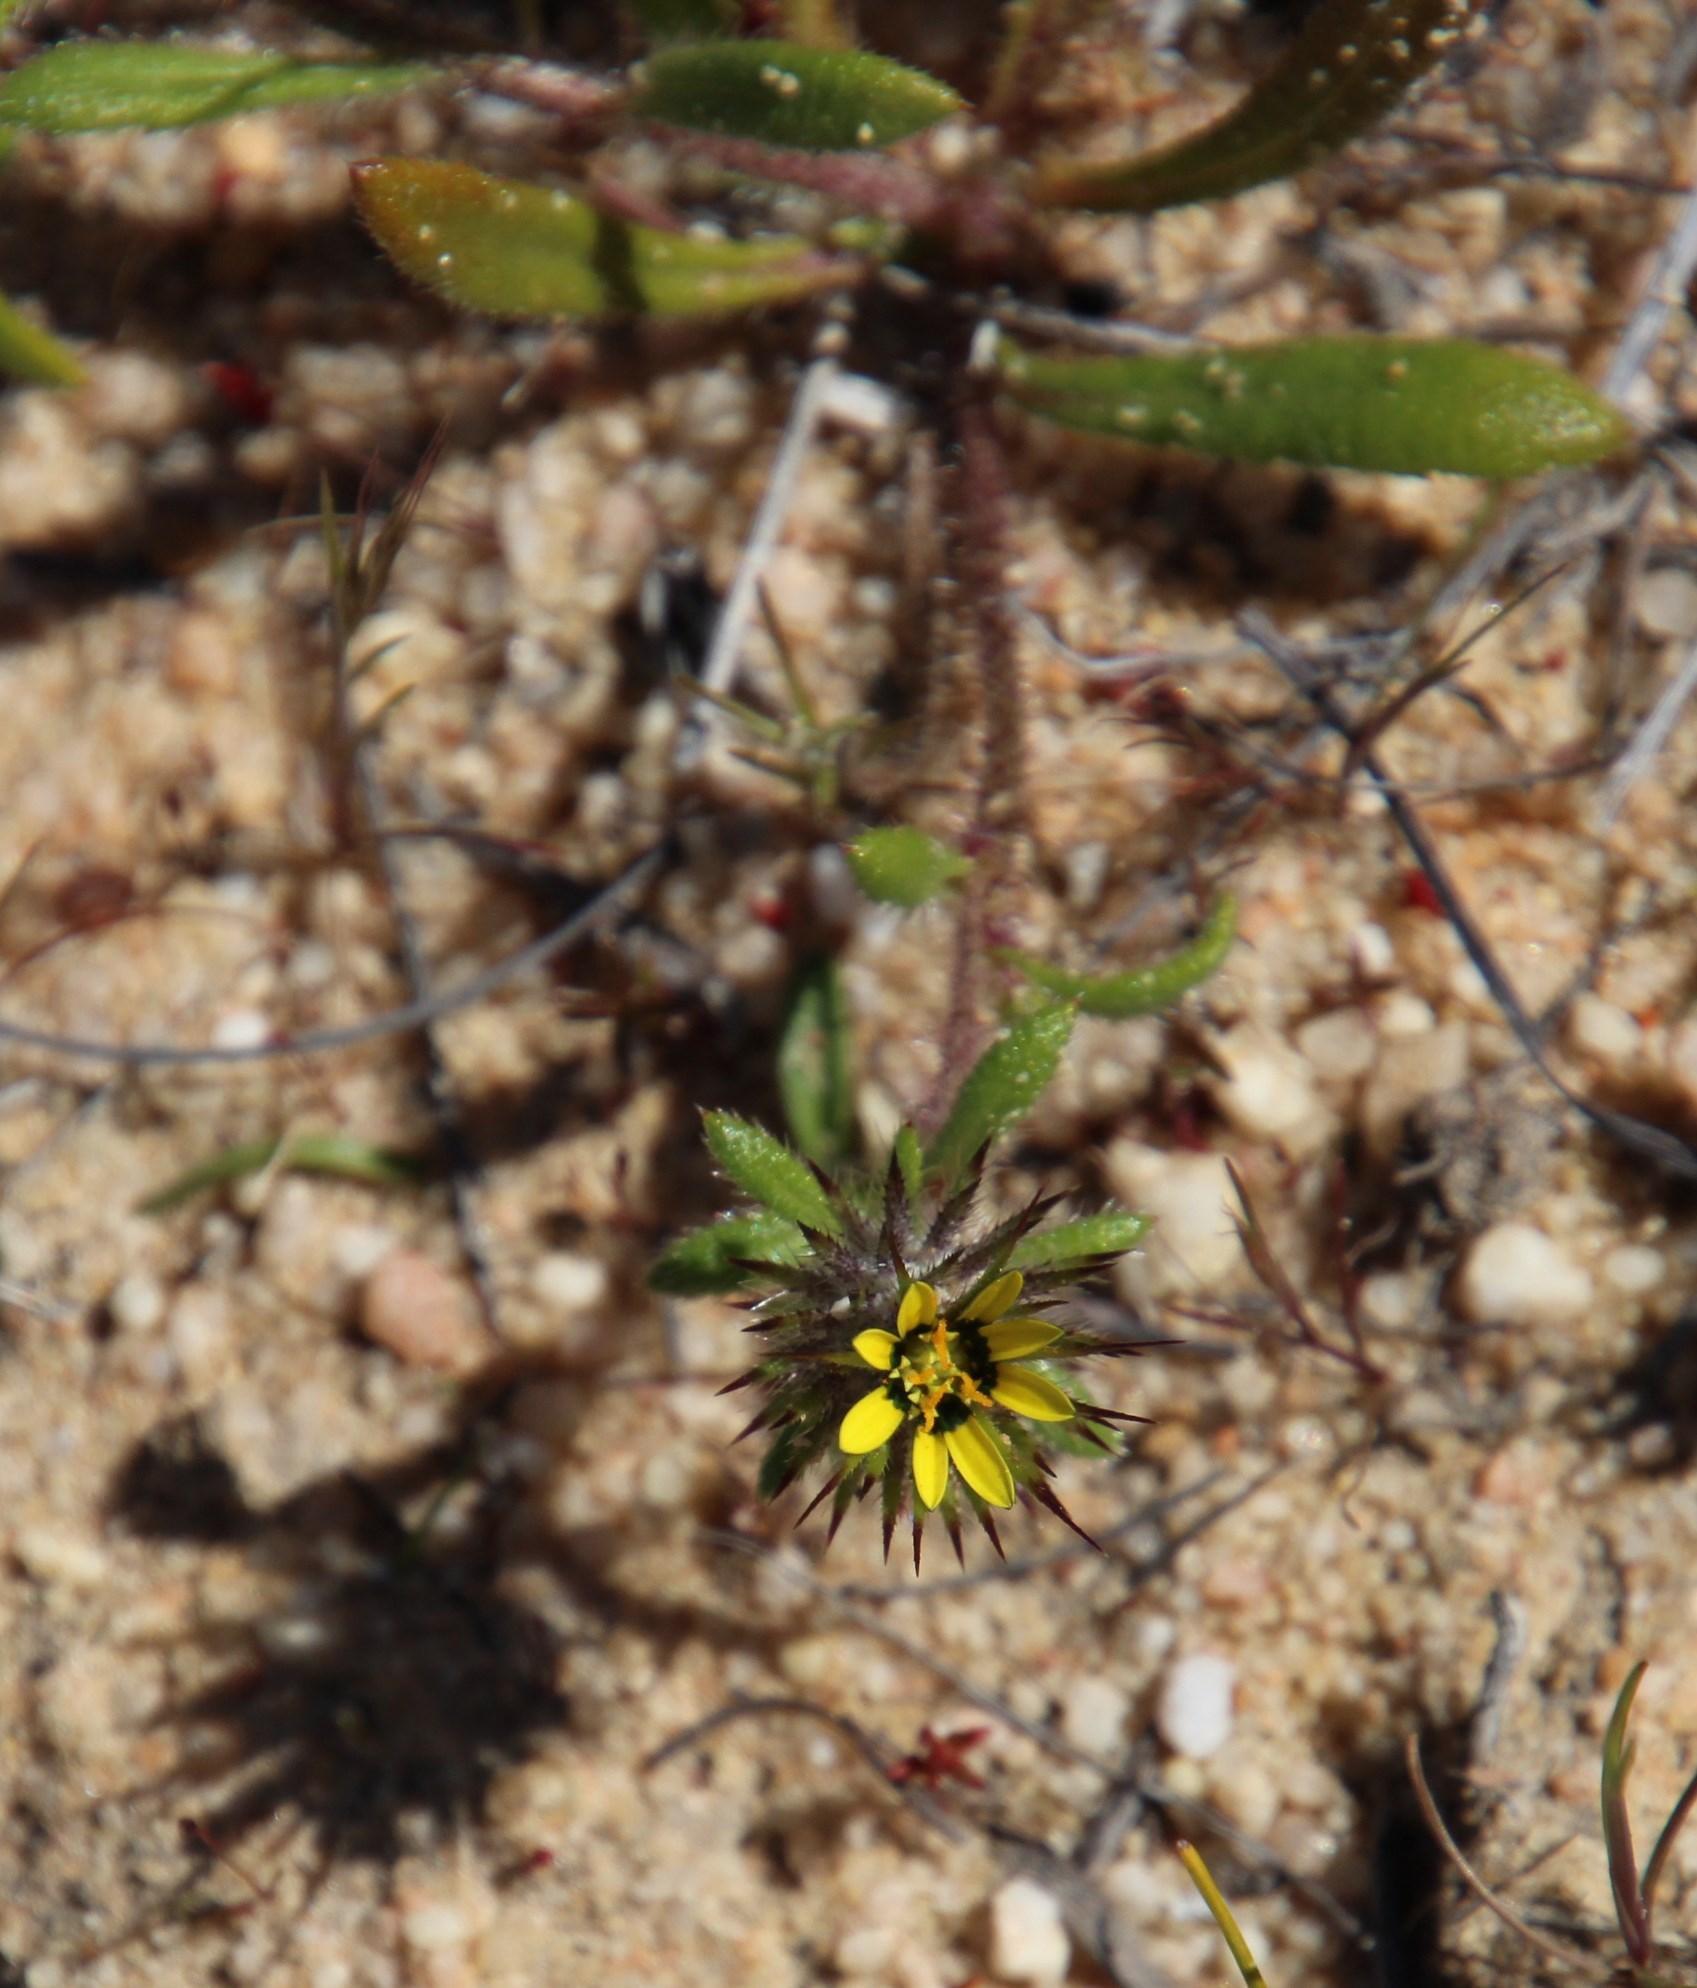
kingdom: Plantae
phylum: Tracheophyta
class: Magnoliopsida
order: Asterales
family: Asteraceae
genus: Gorteria
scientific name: Gorteria personata
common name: Gorteria
